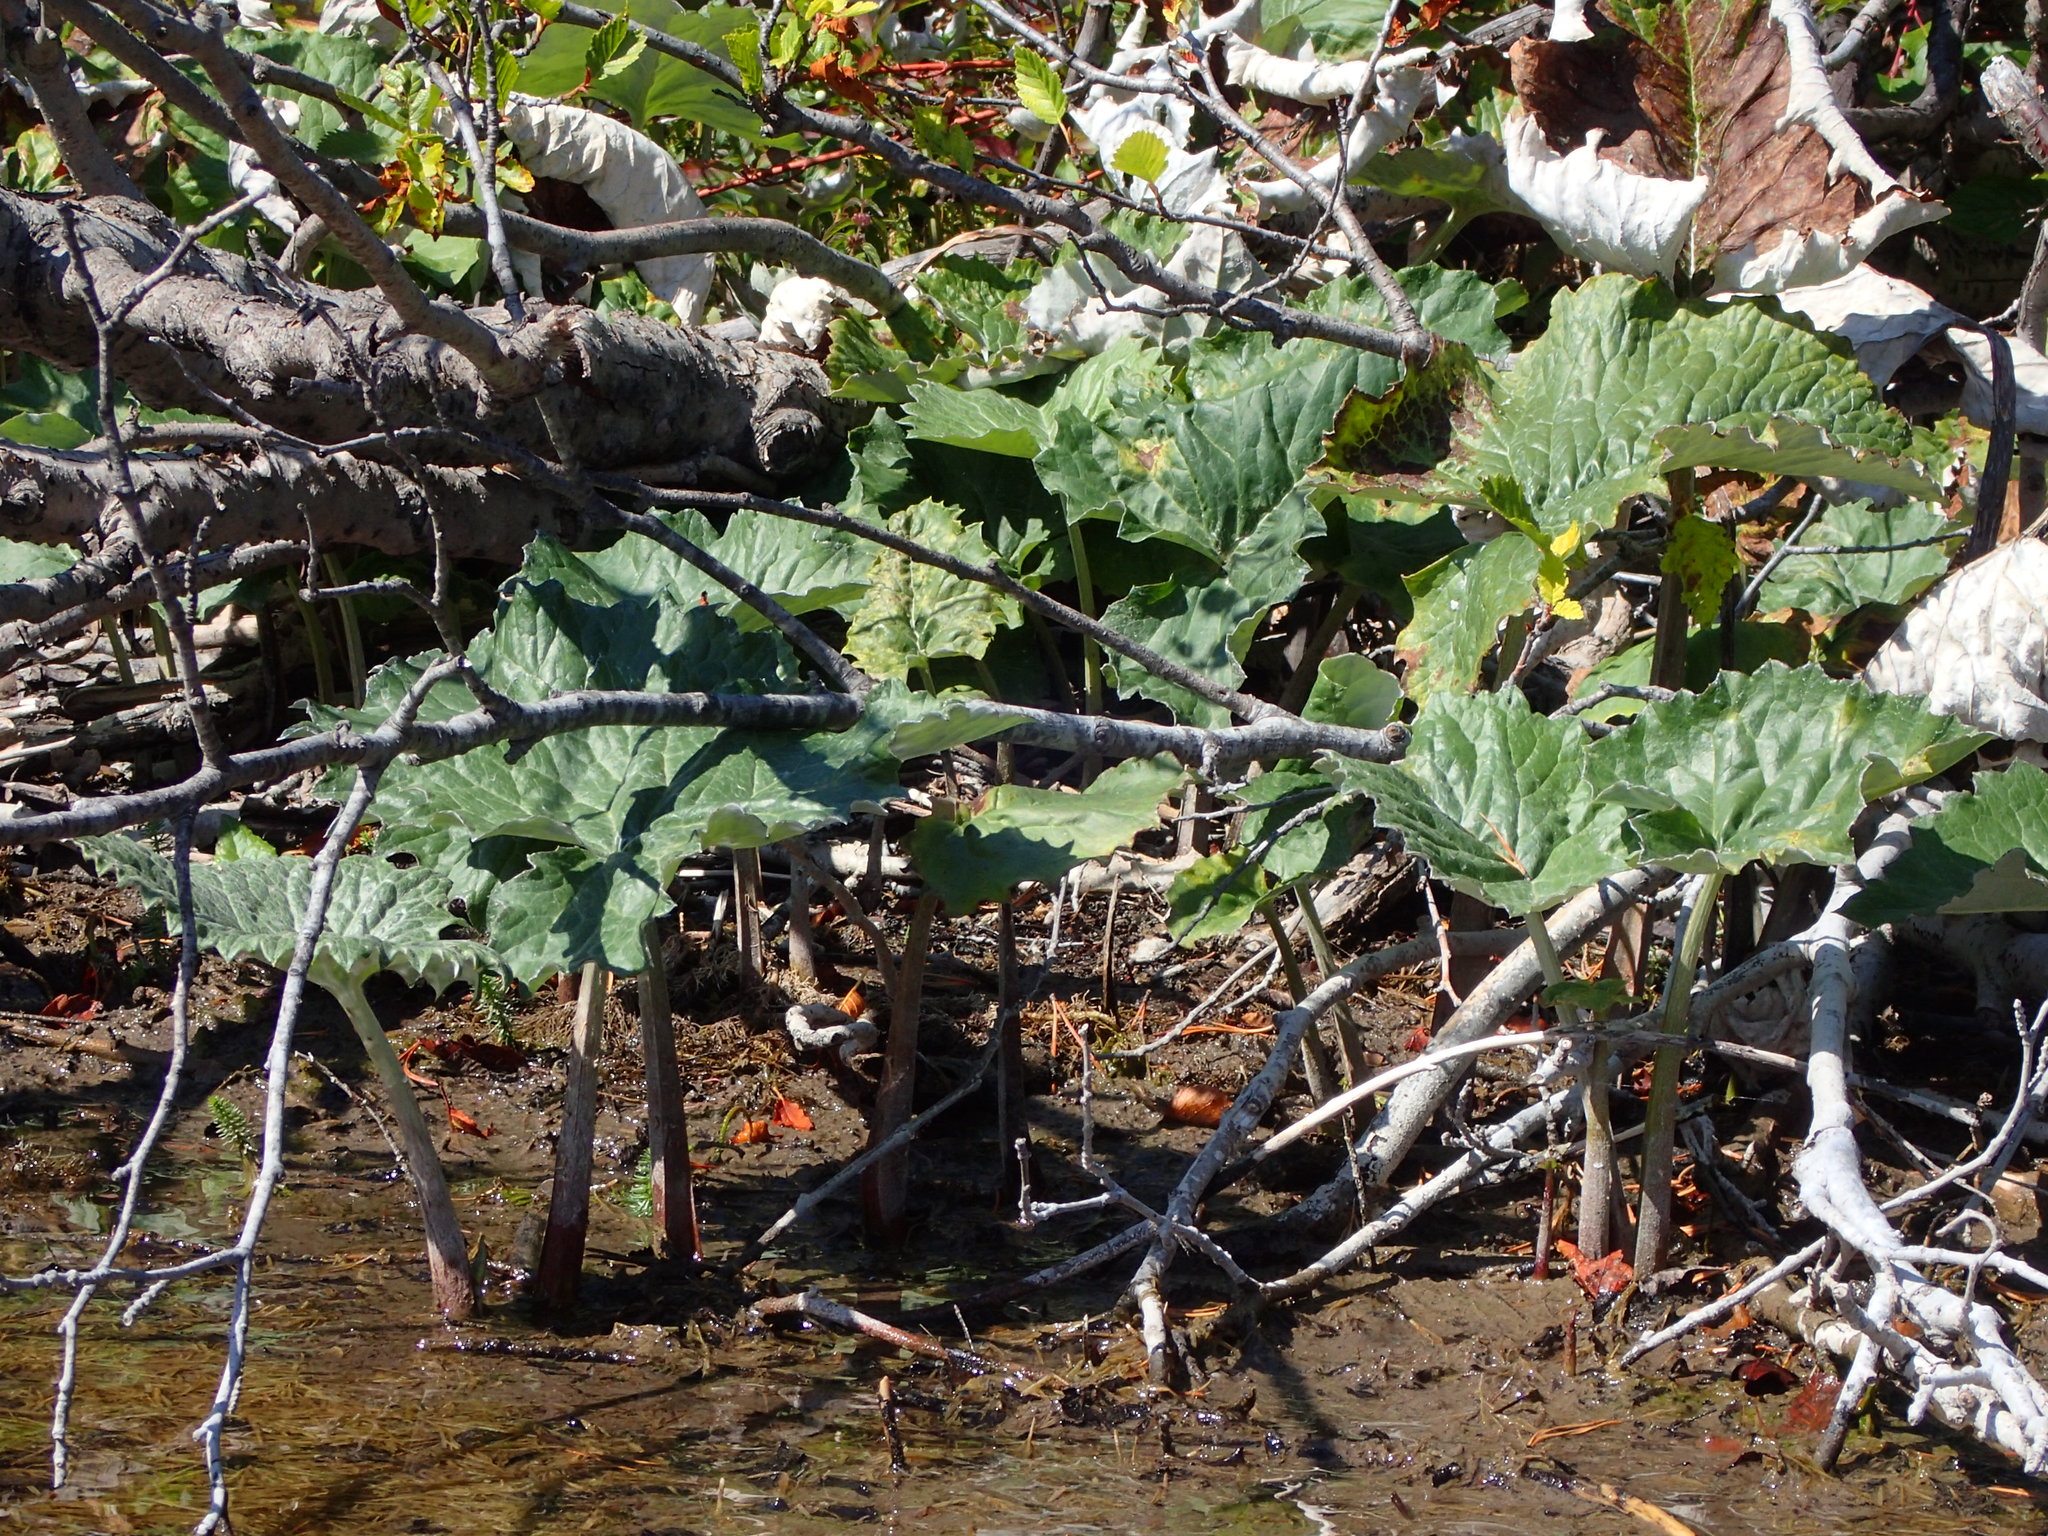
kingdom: Plantae
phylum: Tracheophyta
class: Magnoliopsida
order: Asterales
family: Asteraceae
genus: Petasites
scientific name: Petasites frigidus
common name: Arctic butterbur
